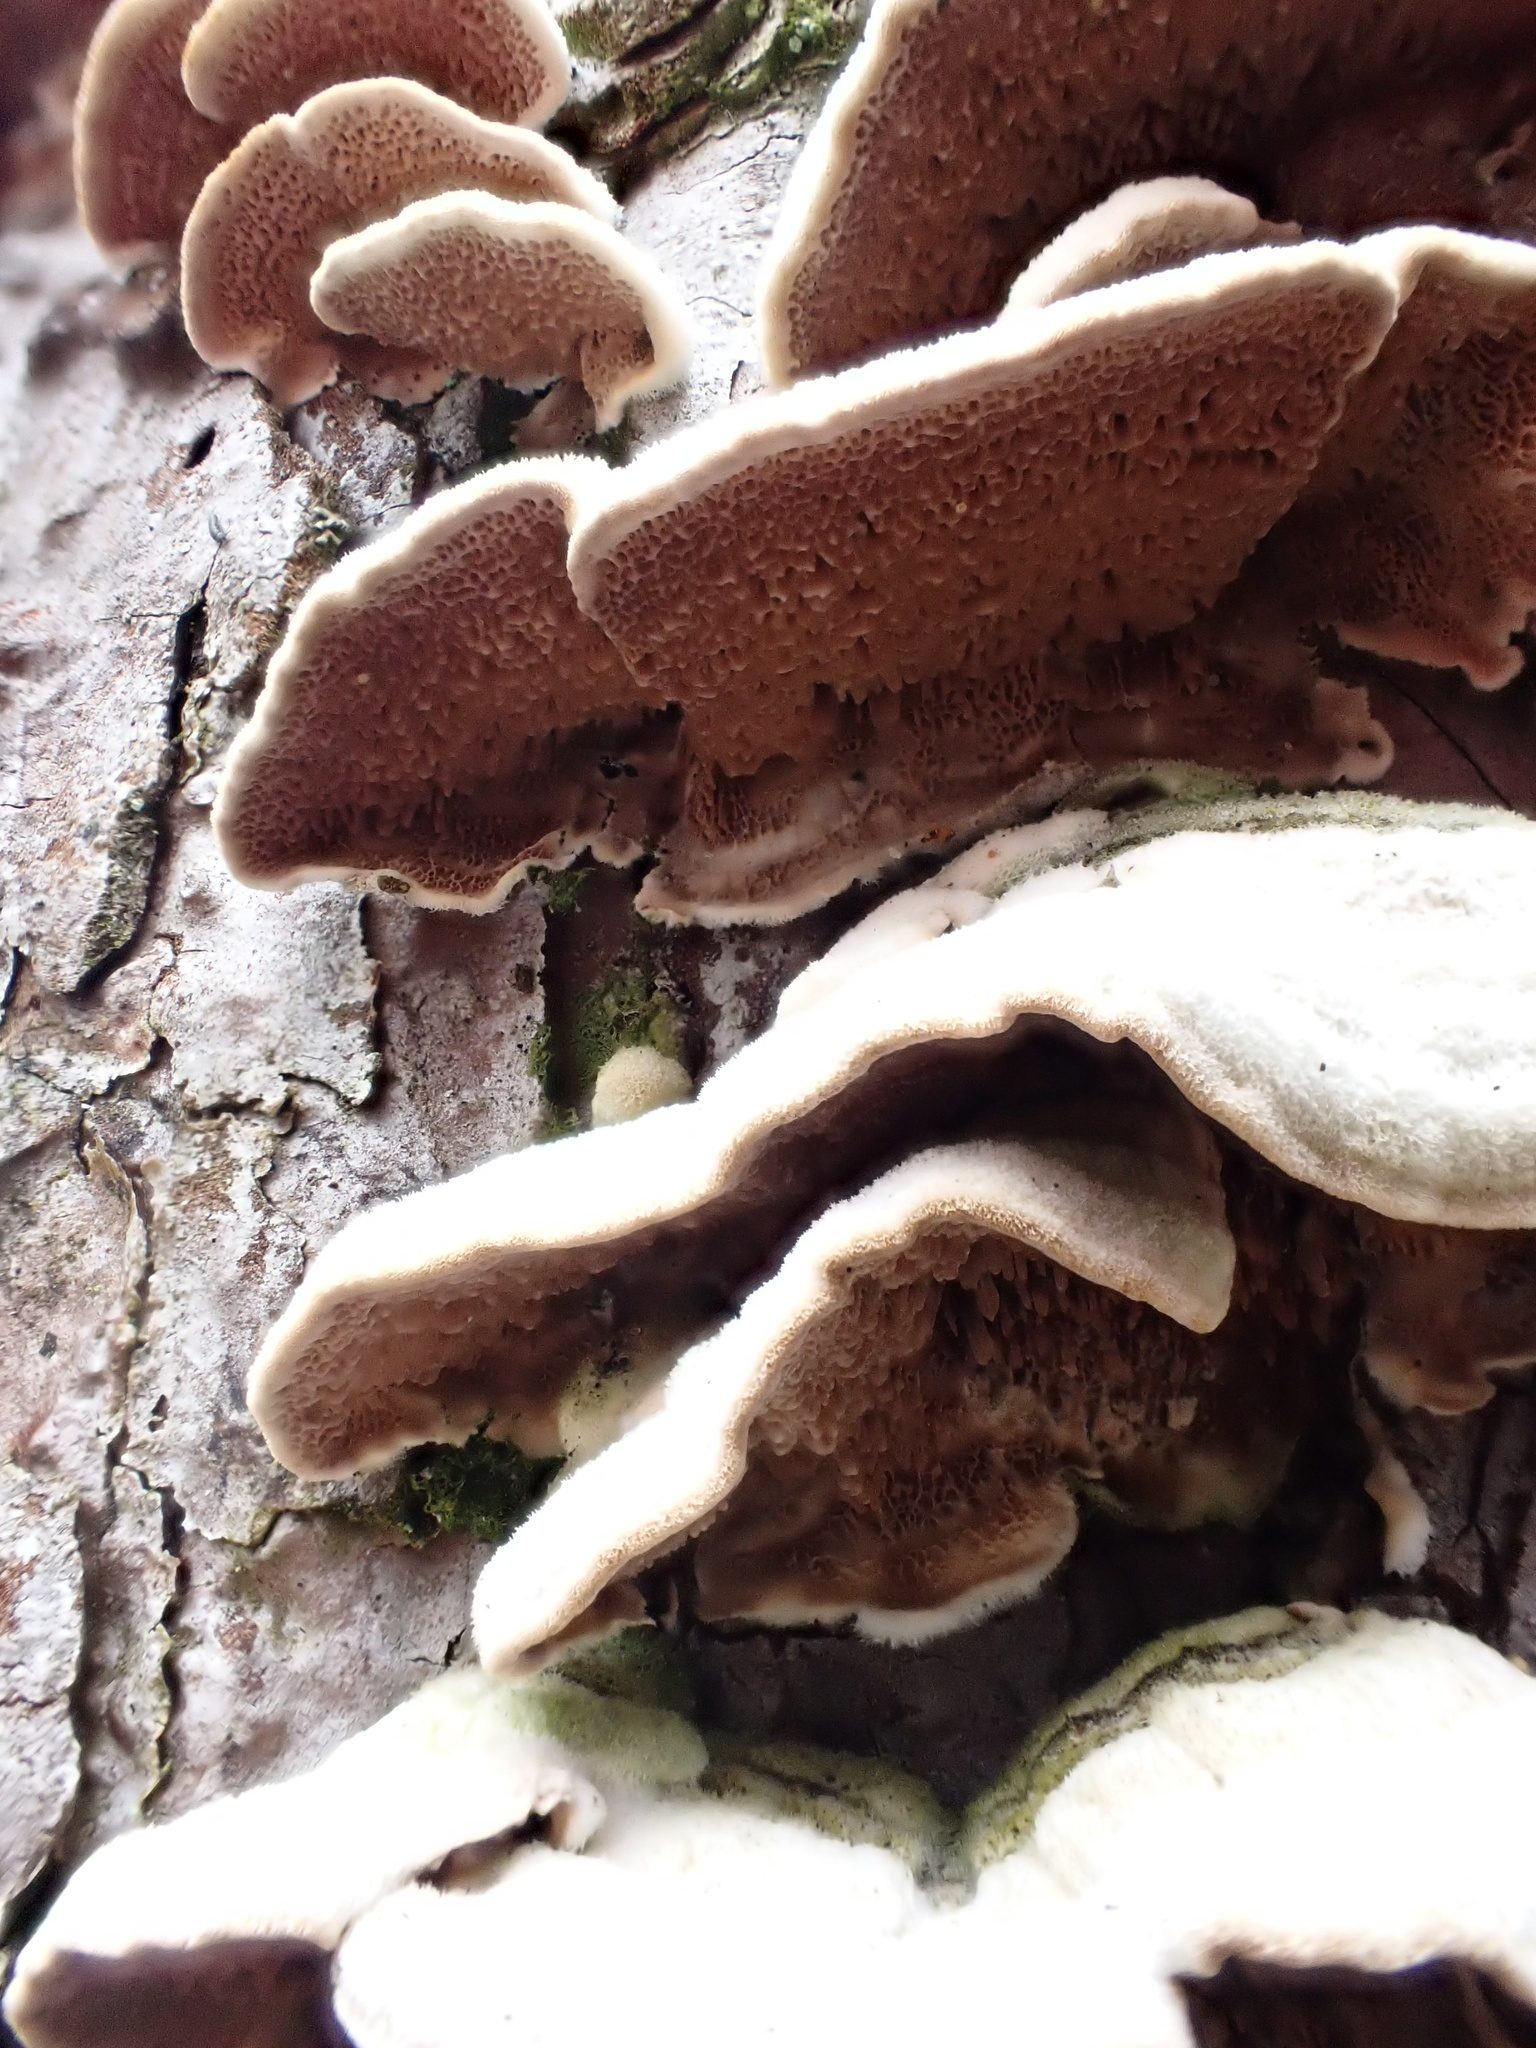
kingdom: Fungi
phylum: Basidiomycota
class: Agaricomycetes
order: Hymenochaetales
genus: Trichaptum
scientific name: Trichaptum fuscoviolaceum
